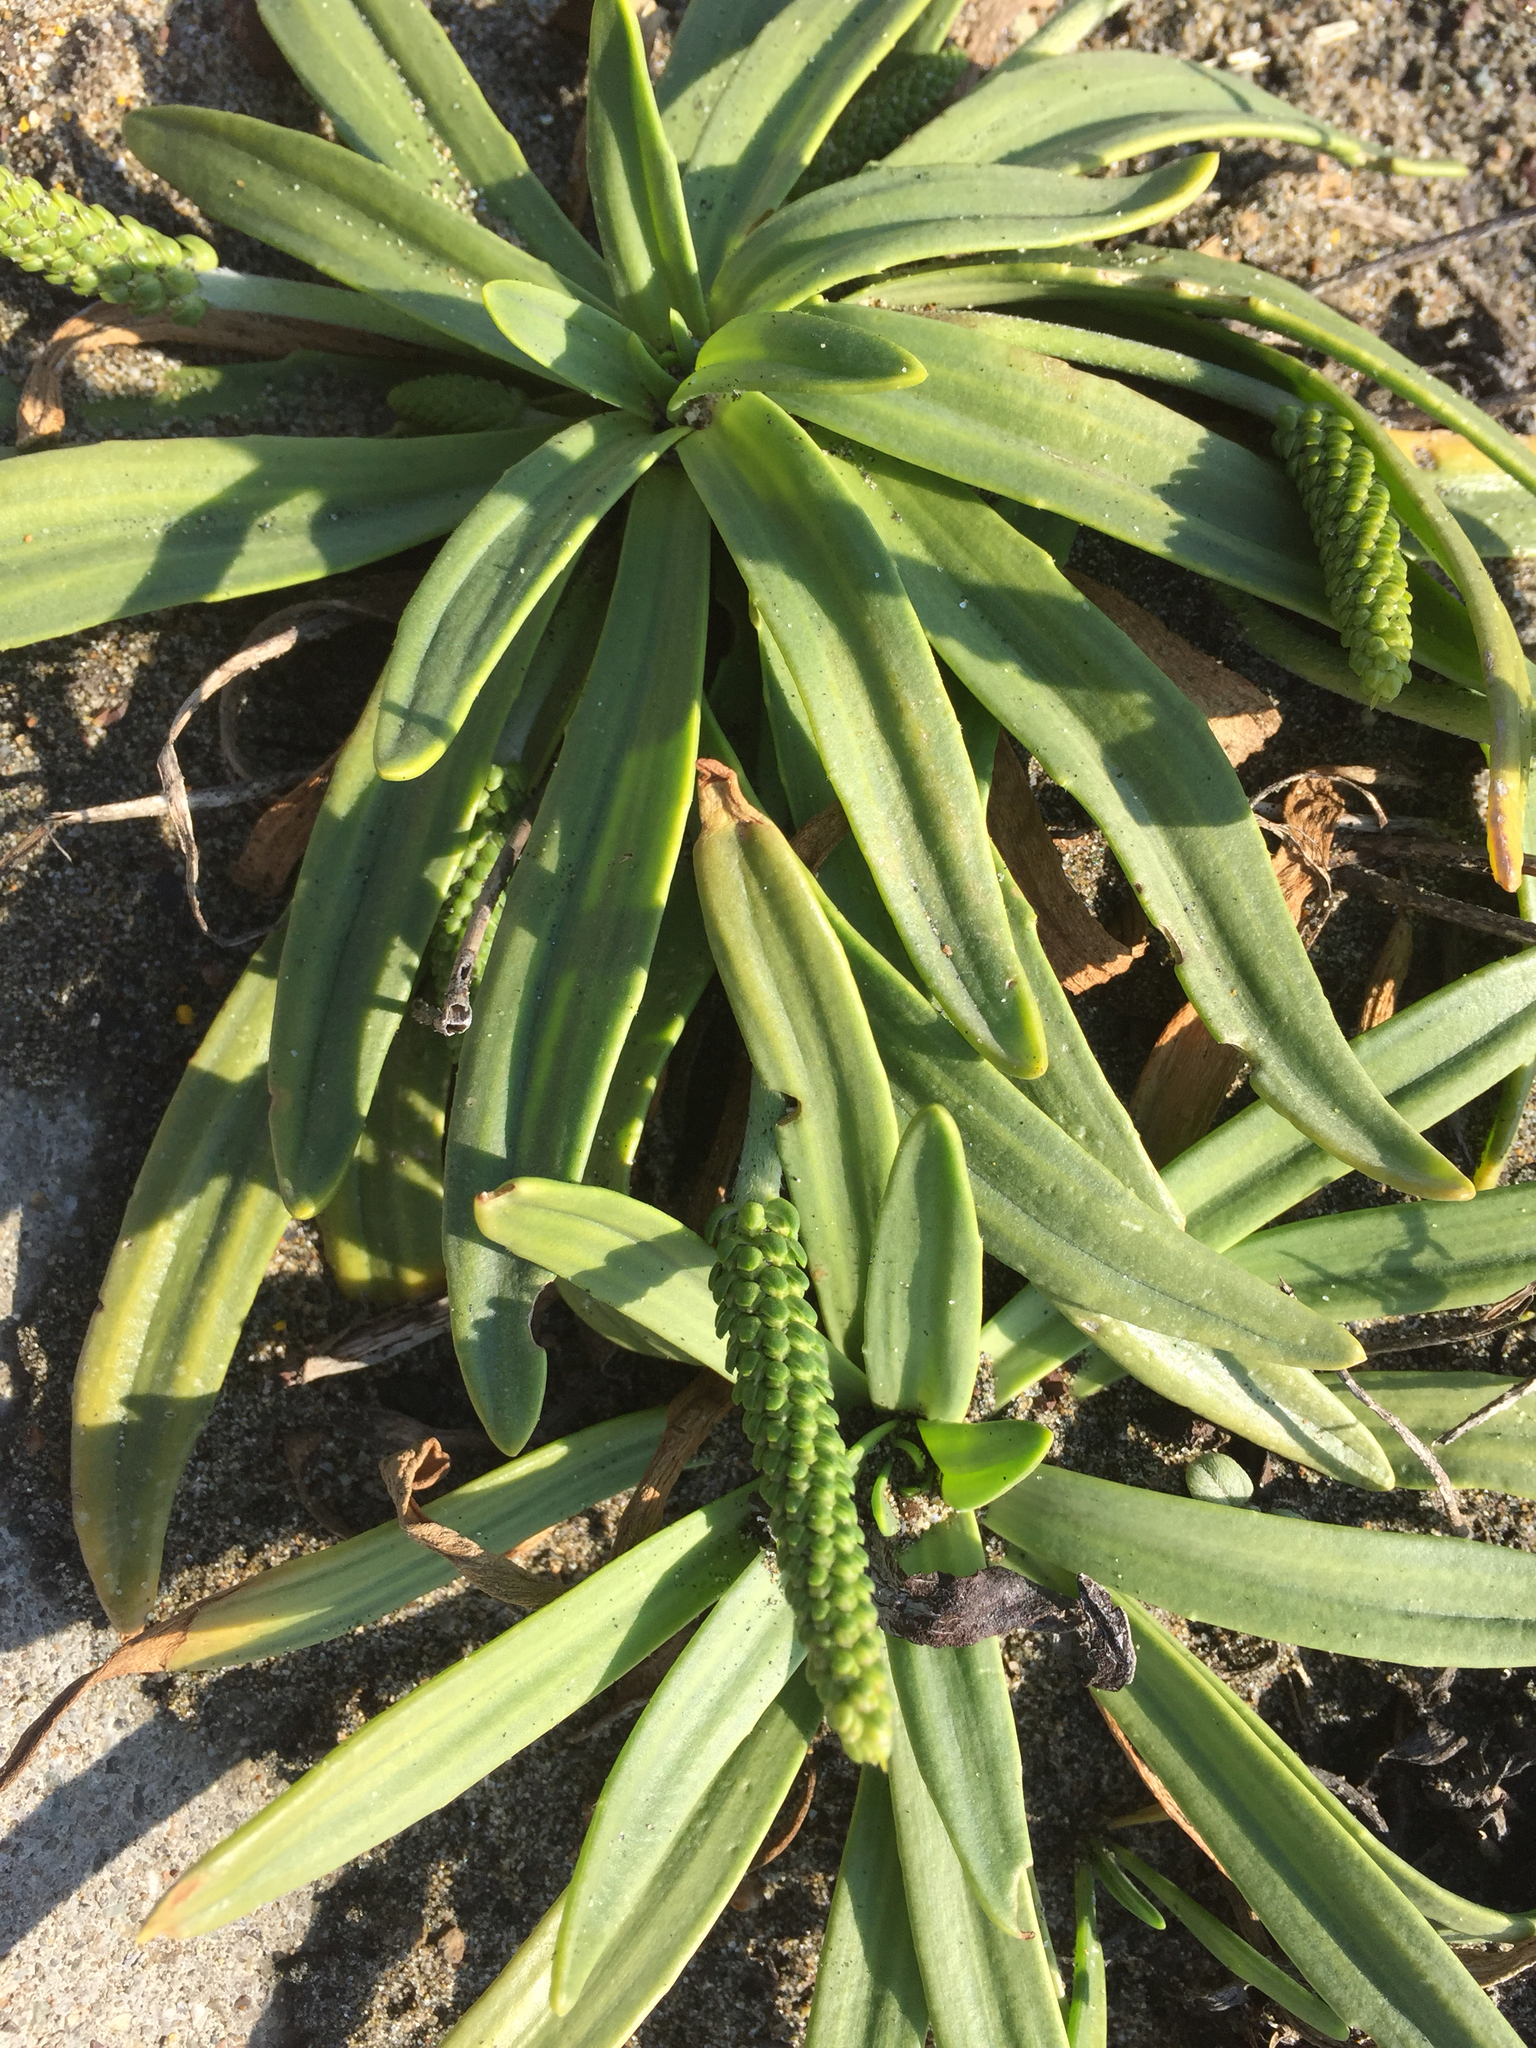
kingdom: Plantae
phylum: Tracheophyta
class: Magnoliopsida
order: Lamiales
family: Plantaginaceae
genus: Plantago
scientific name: Plantago maritima
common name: Sea plantain
